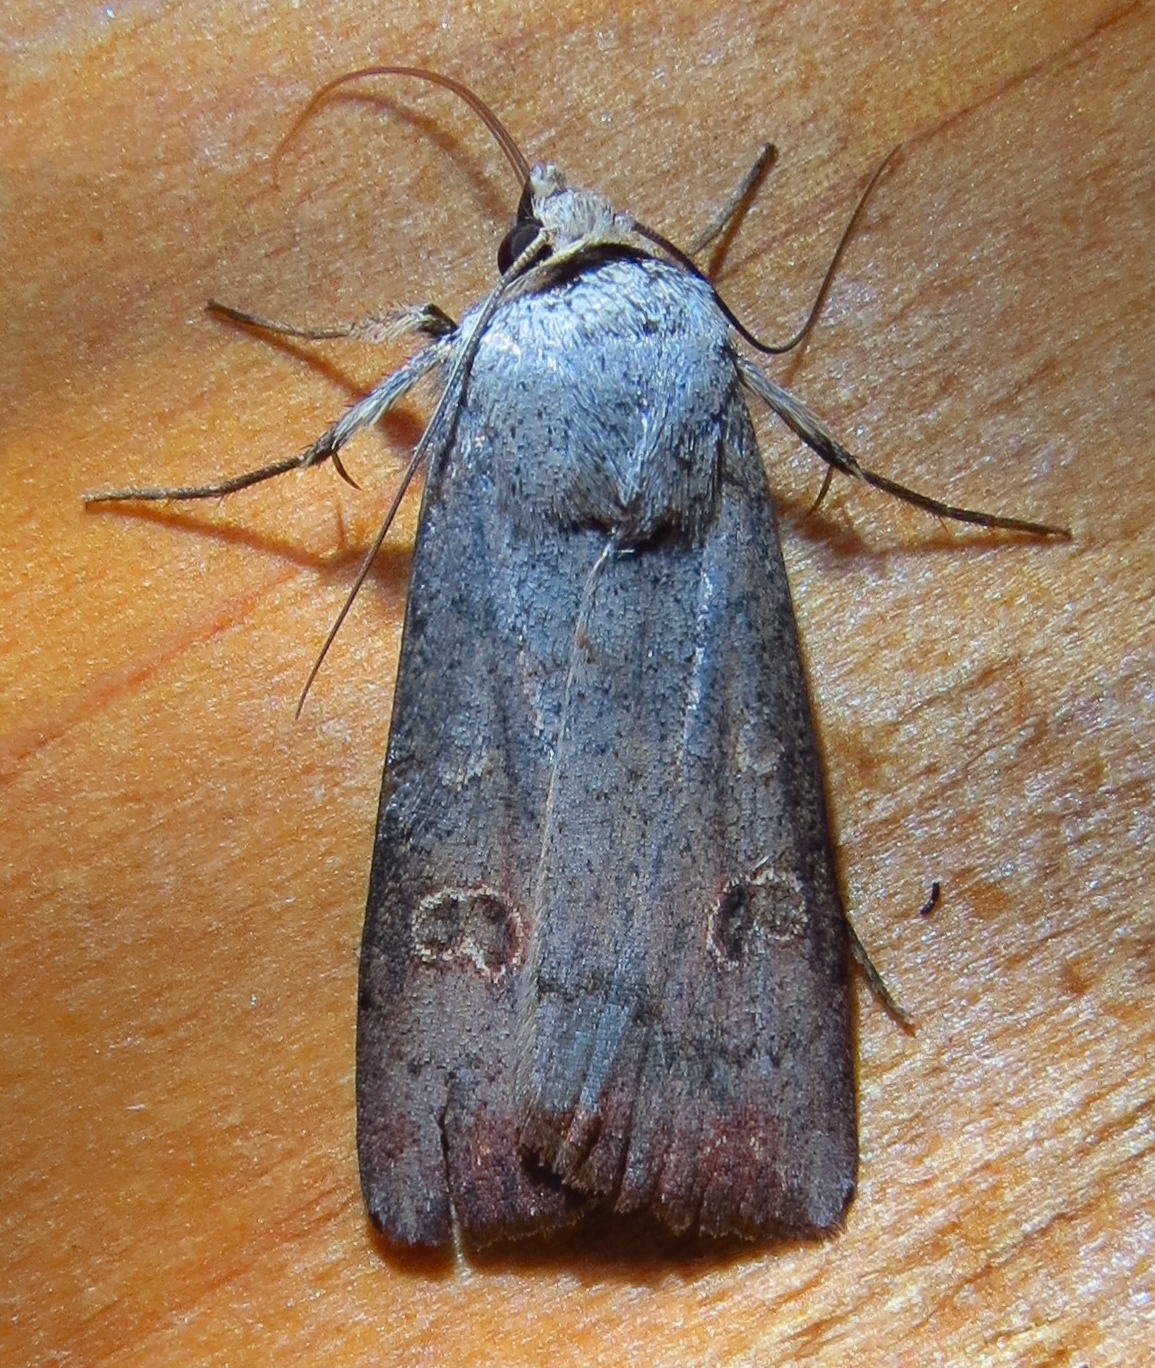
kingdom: Animalia
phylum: Arthropoda
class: Insecta
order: Lepidoptera
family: Noctuidae
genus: Anicla
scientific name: Anicla infecta
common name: Green cutworm
